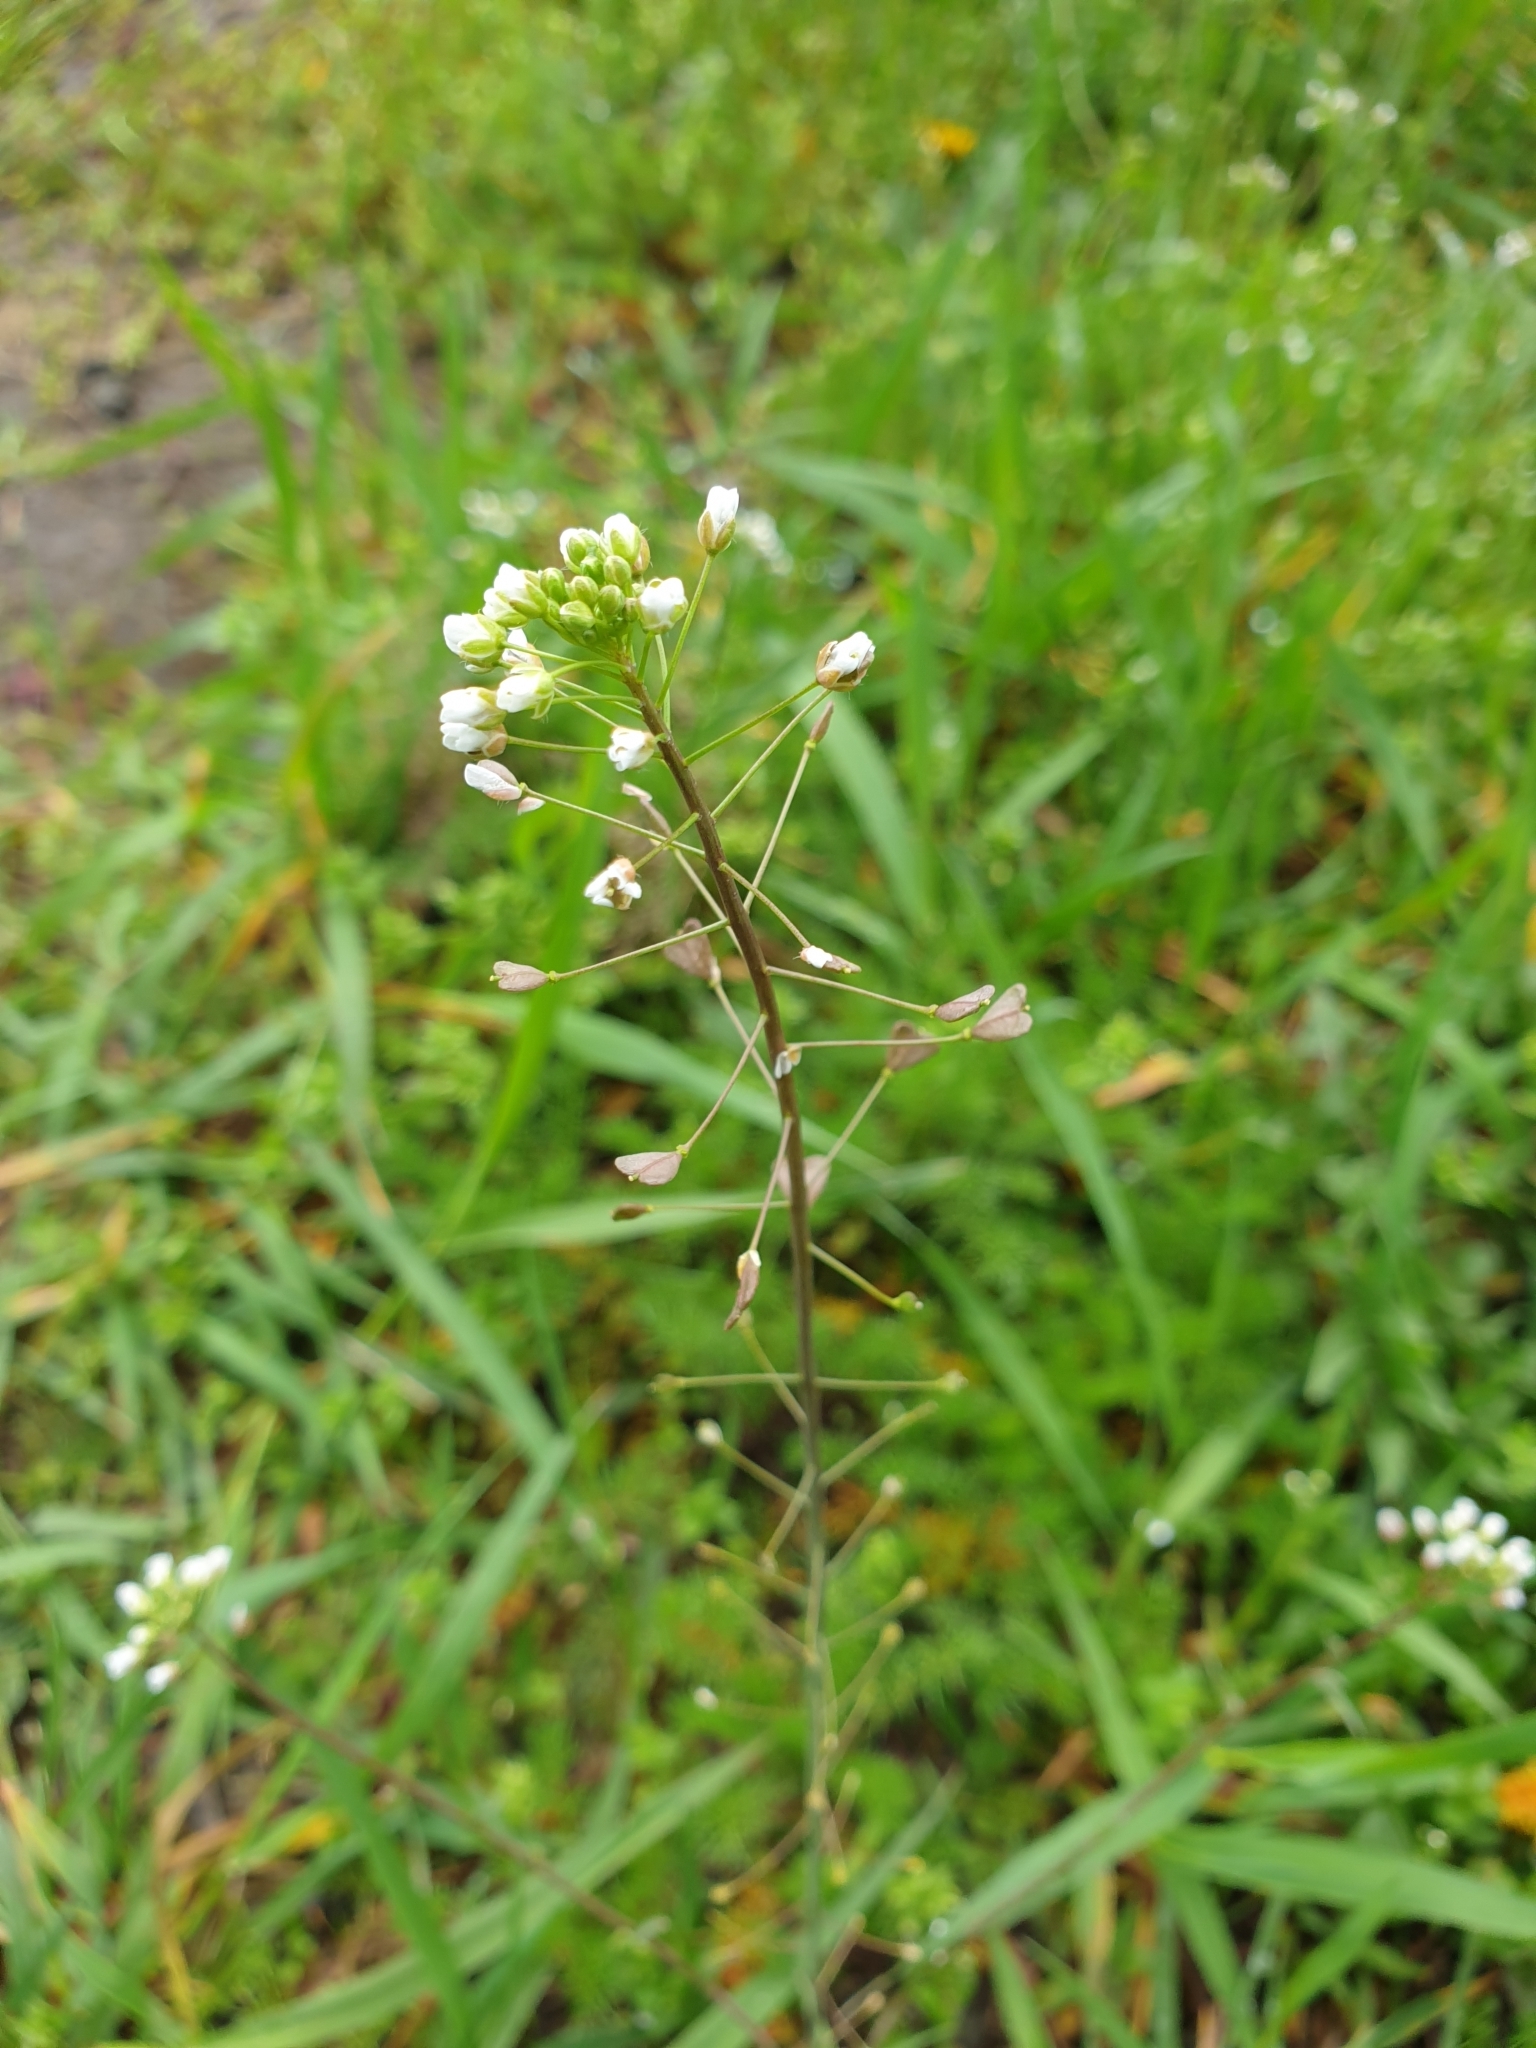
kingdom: Plantae
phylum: Tracheophyta
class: Magnoliopsida
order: Brassicales
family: Brassicaceae
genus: Capsella
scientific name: Capsella bursa-pastoris
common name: Shepherd's purse
